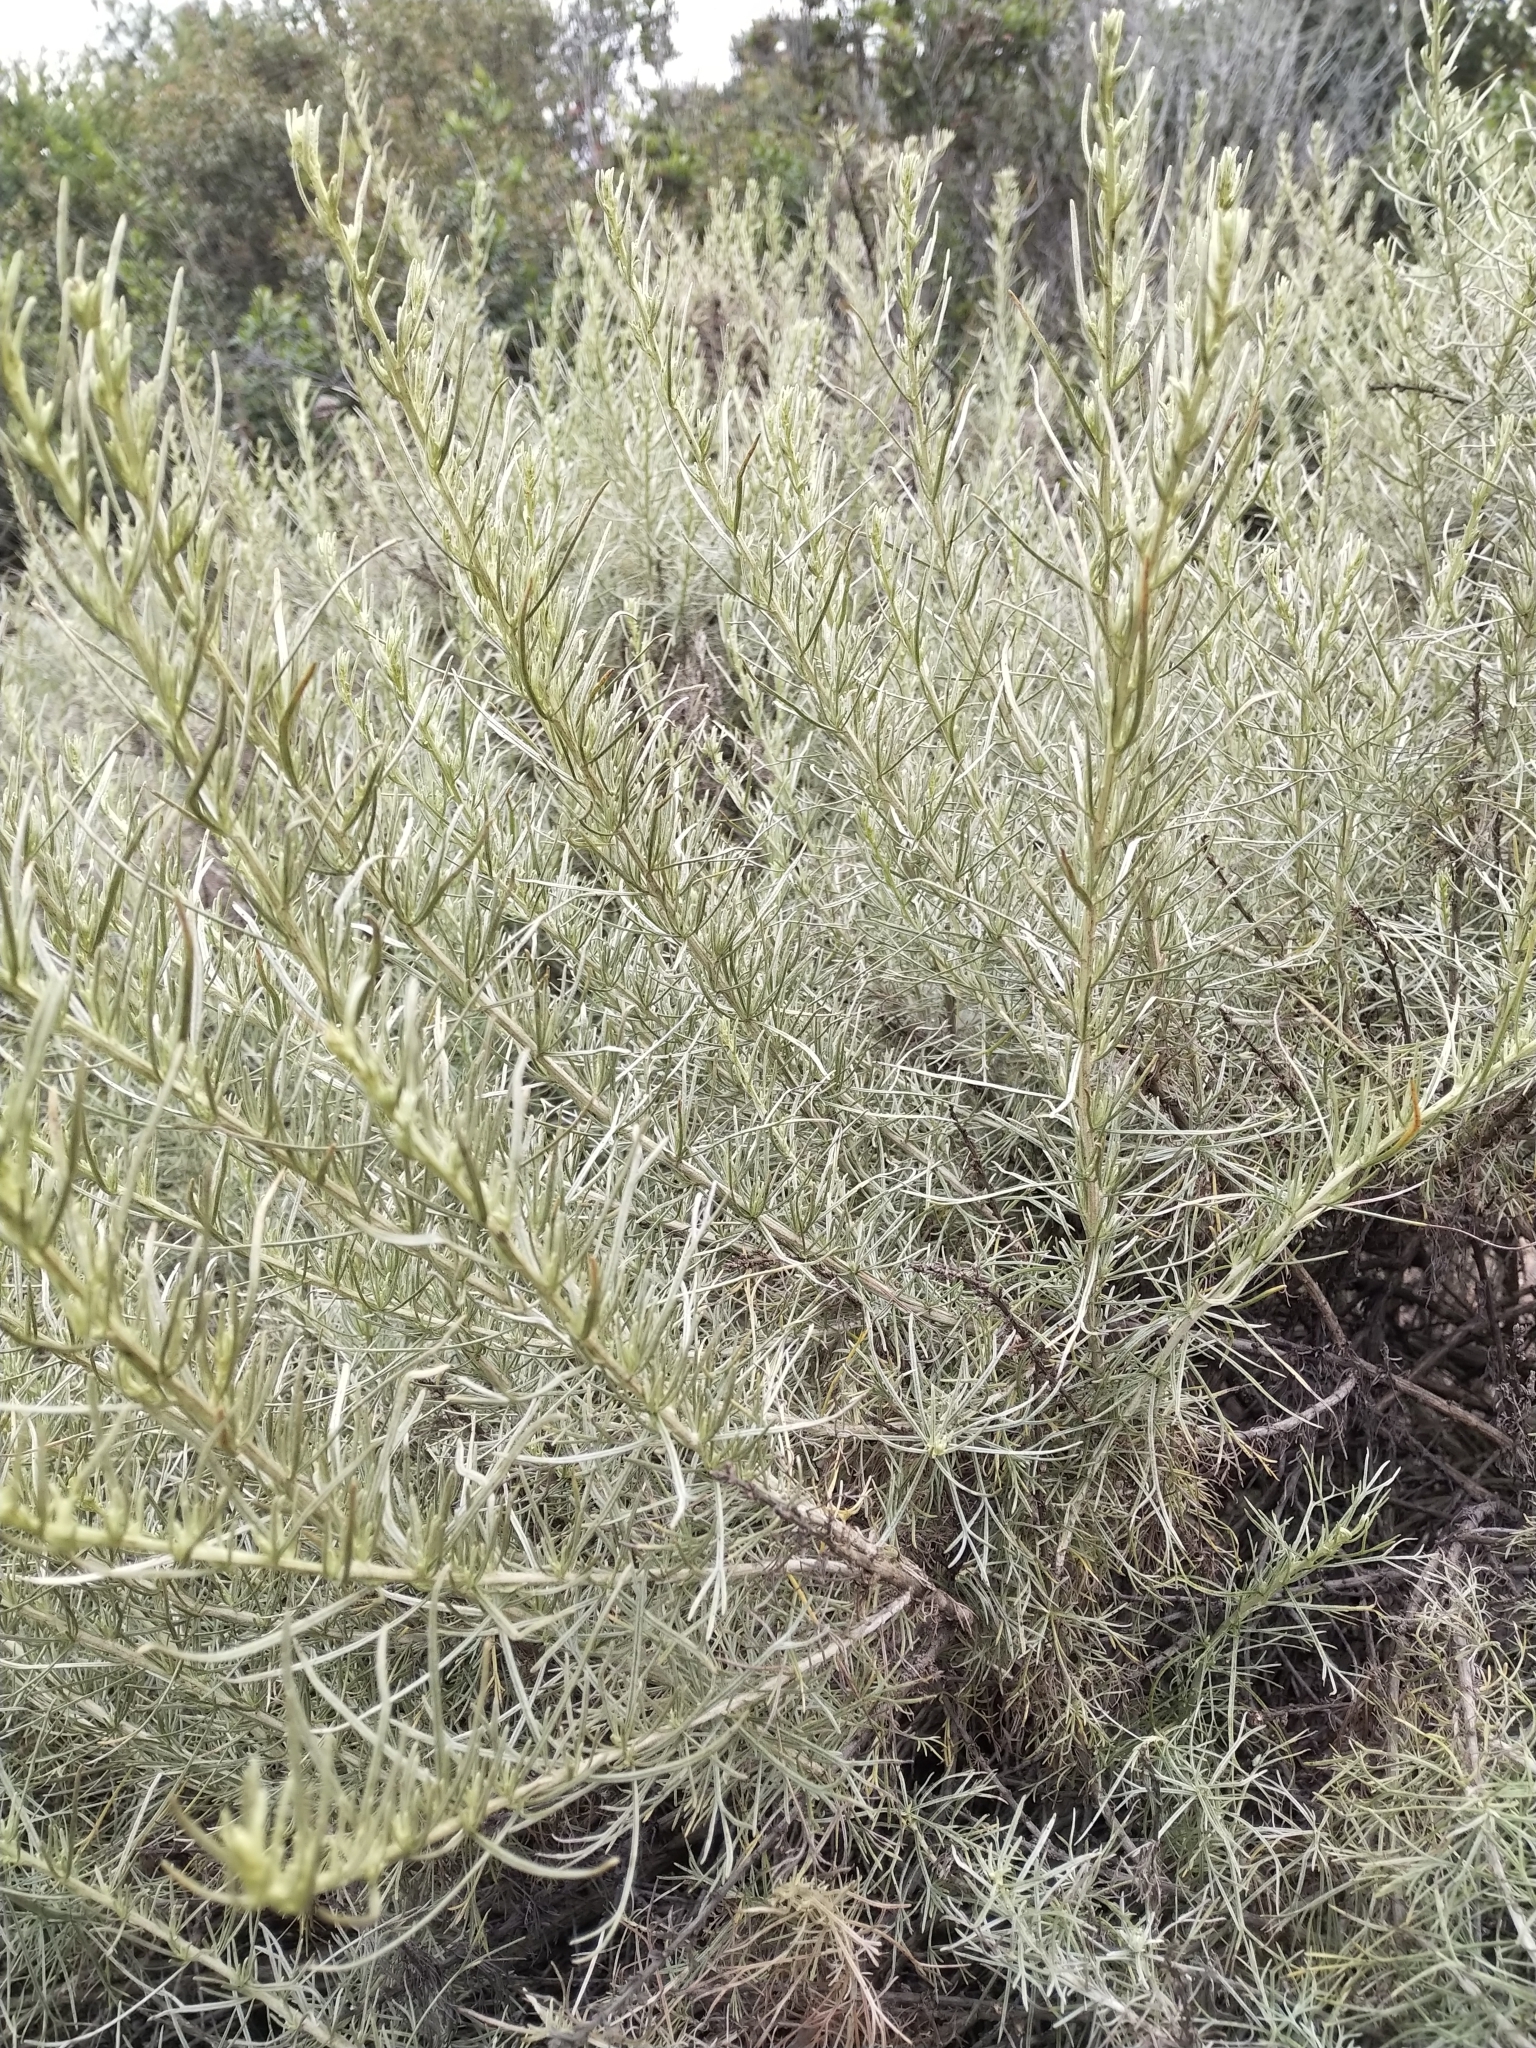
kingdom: Plantae
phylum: Tracheophyta
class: Magnoliopsida
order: Asterales
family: Asteraceae
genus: Artemisia
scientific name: Artemisia californica
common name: California sagebrush
